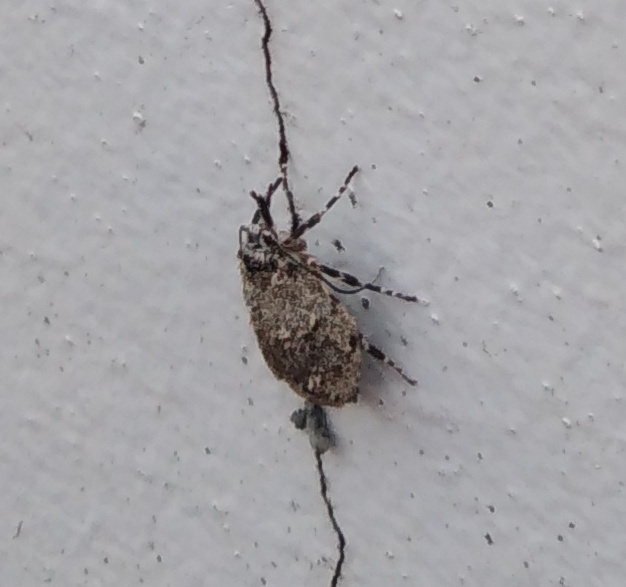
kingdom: Animalia
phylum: Arthropoda
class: Insecta
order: Lepidoptera
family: Lypusidae
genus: Diurnea
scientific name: Diurnea fagella
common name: March tubic
